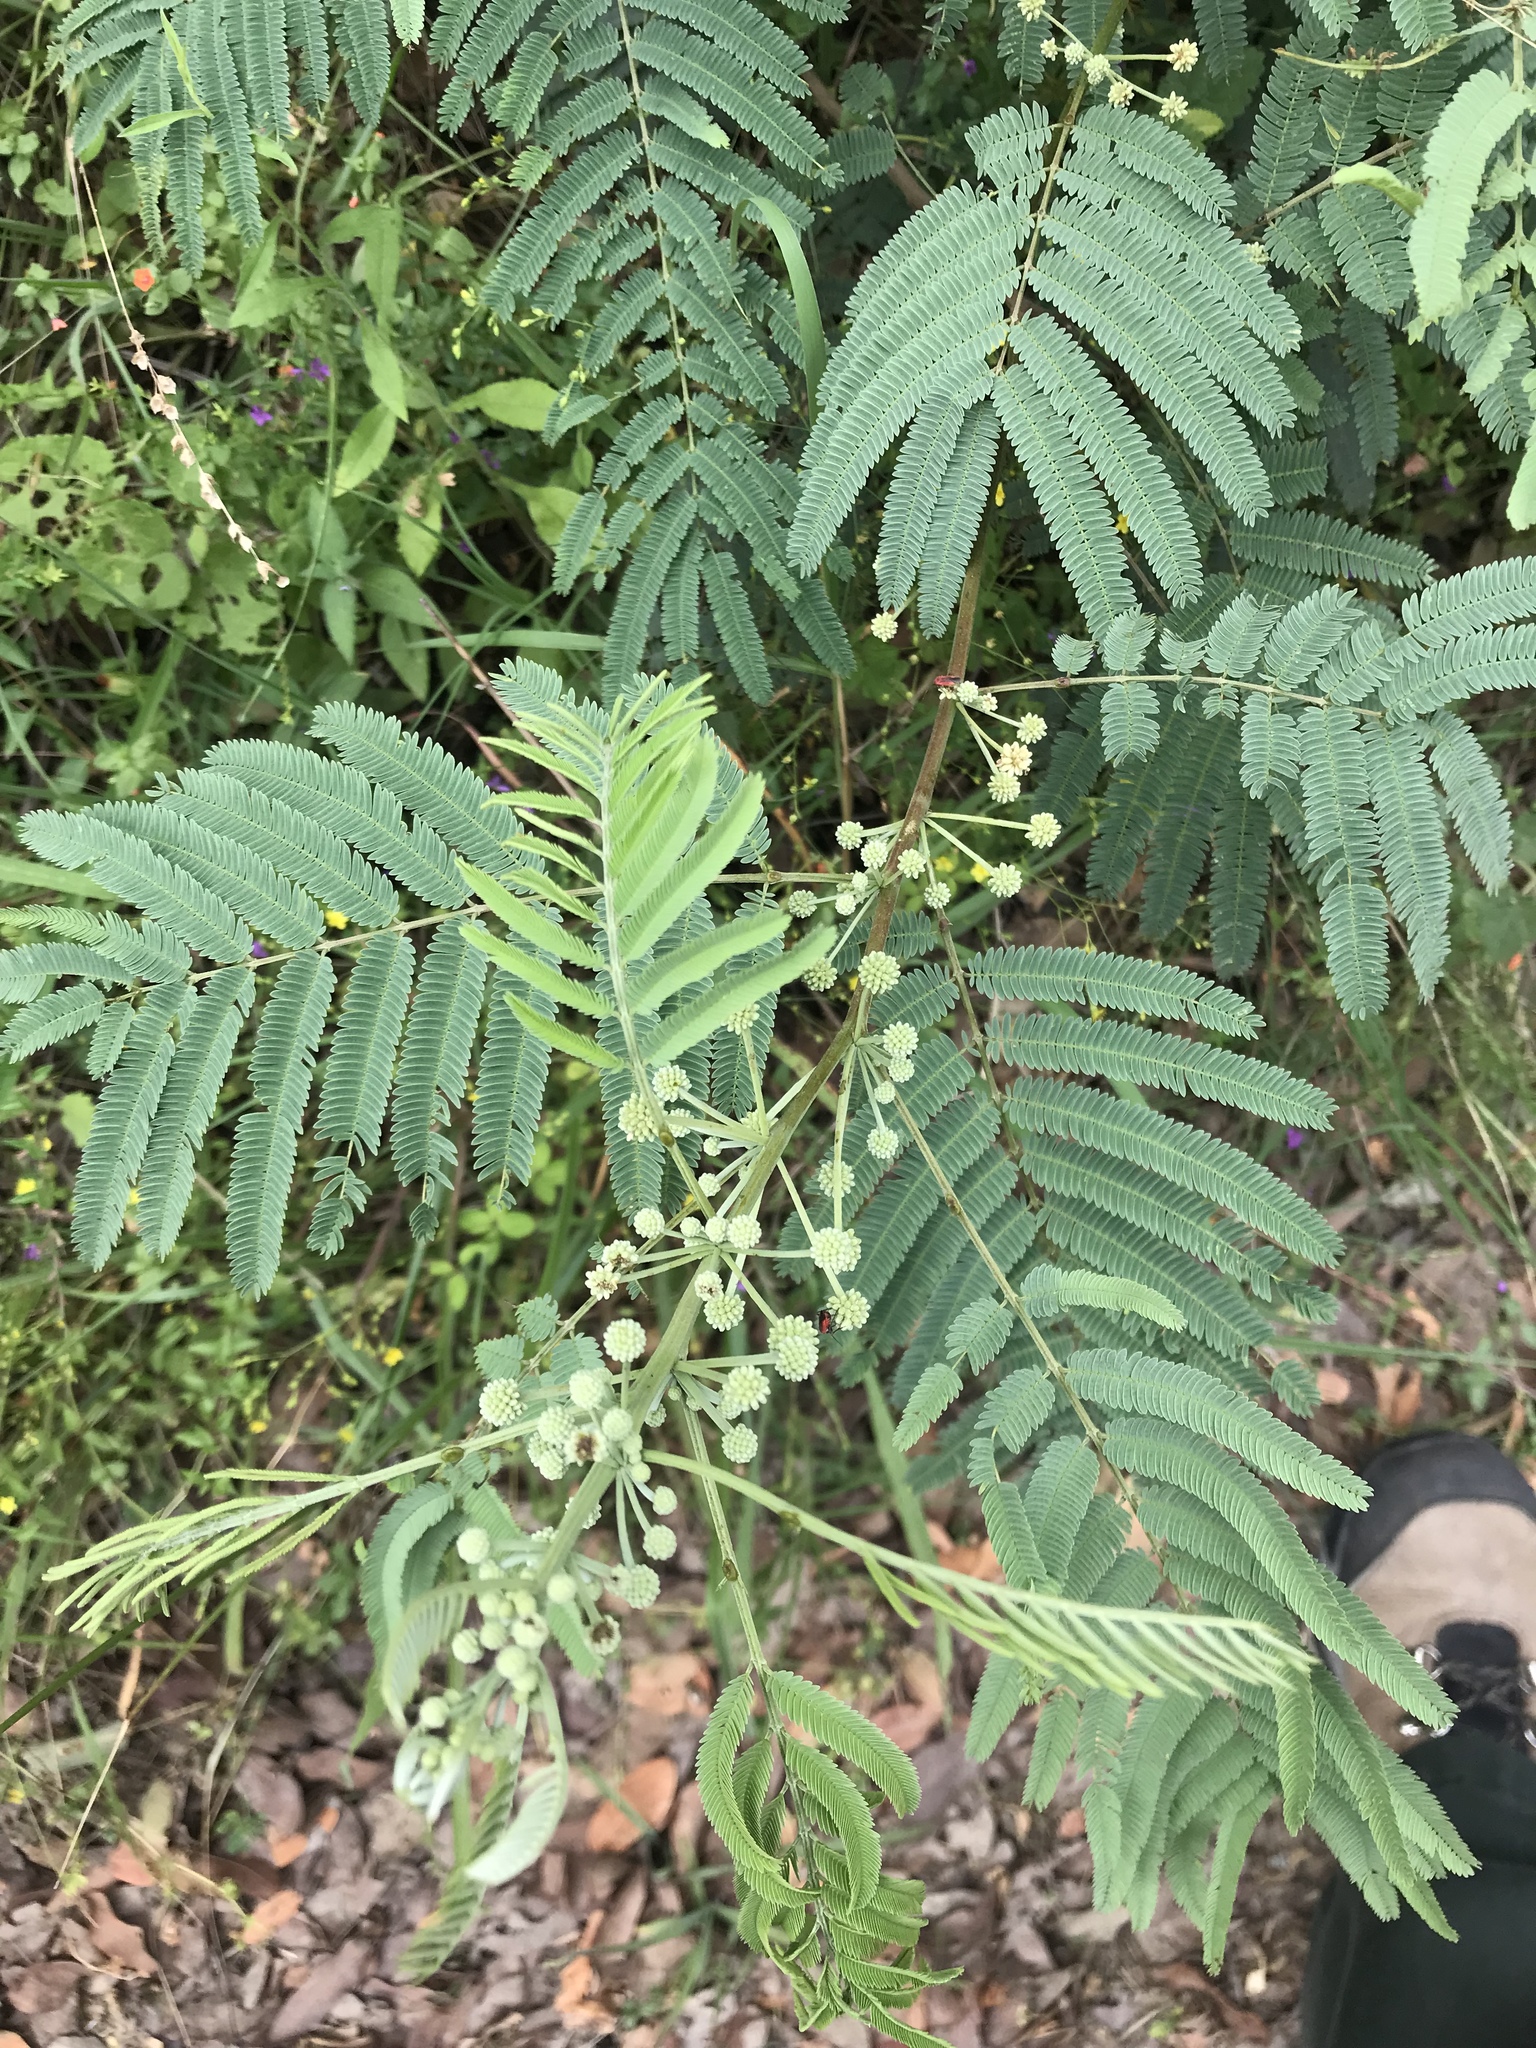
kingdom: Plantae
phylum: Tracheophyta
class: Magnoliopsida
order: Fabales
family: Fabaceae
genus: Acaciella
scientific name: Acaciella angustissima
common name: Prairie acacia
